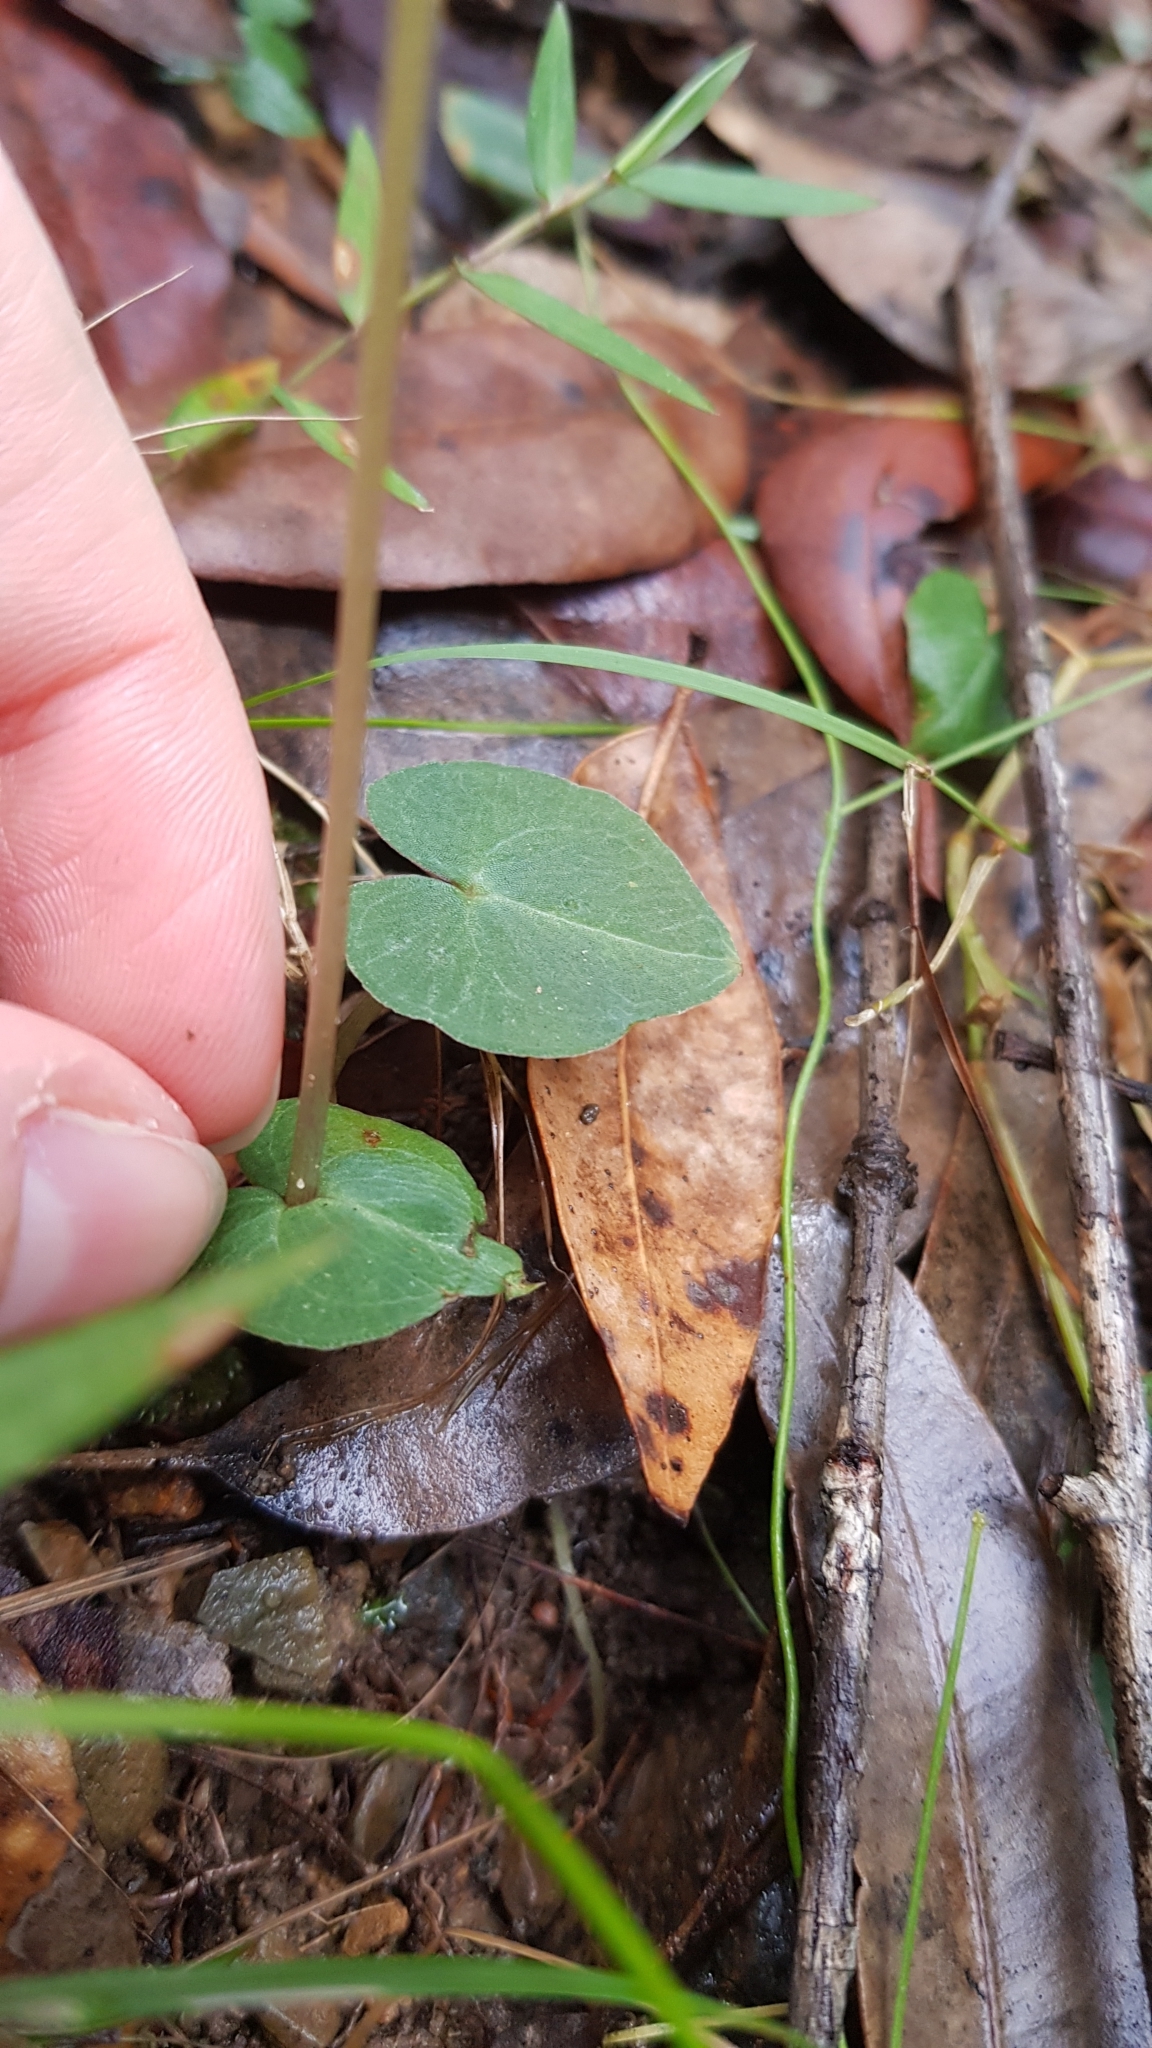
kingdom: Plantae
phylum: Tracheophyta
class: Liliopsida
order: Asparagales
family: Orchidaceae
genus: Acianthus
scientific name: Acianthus fornicatus
